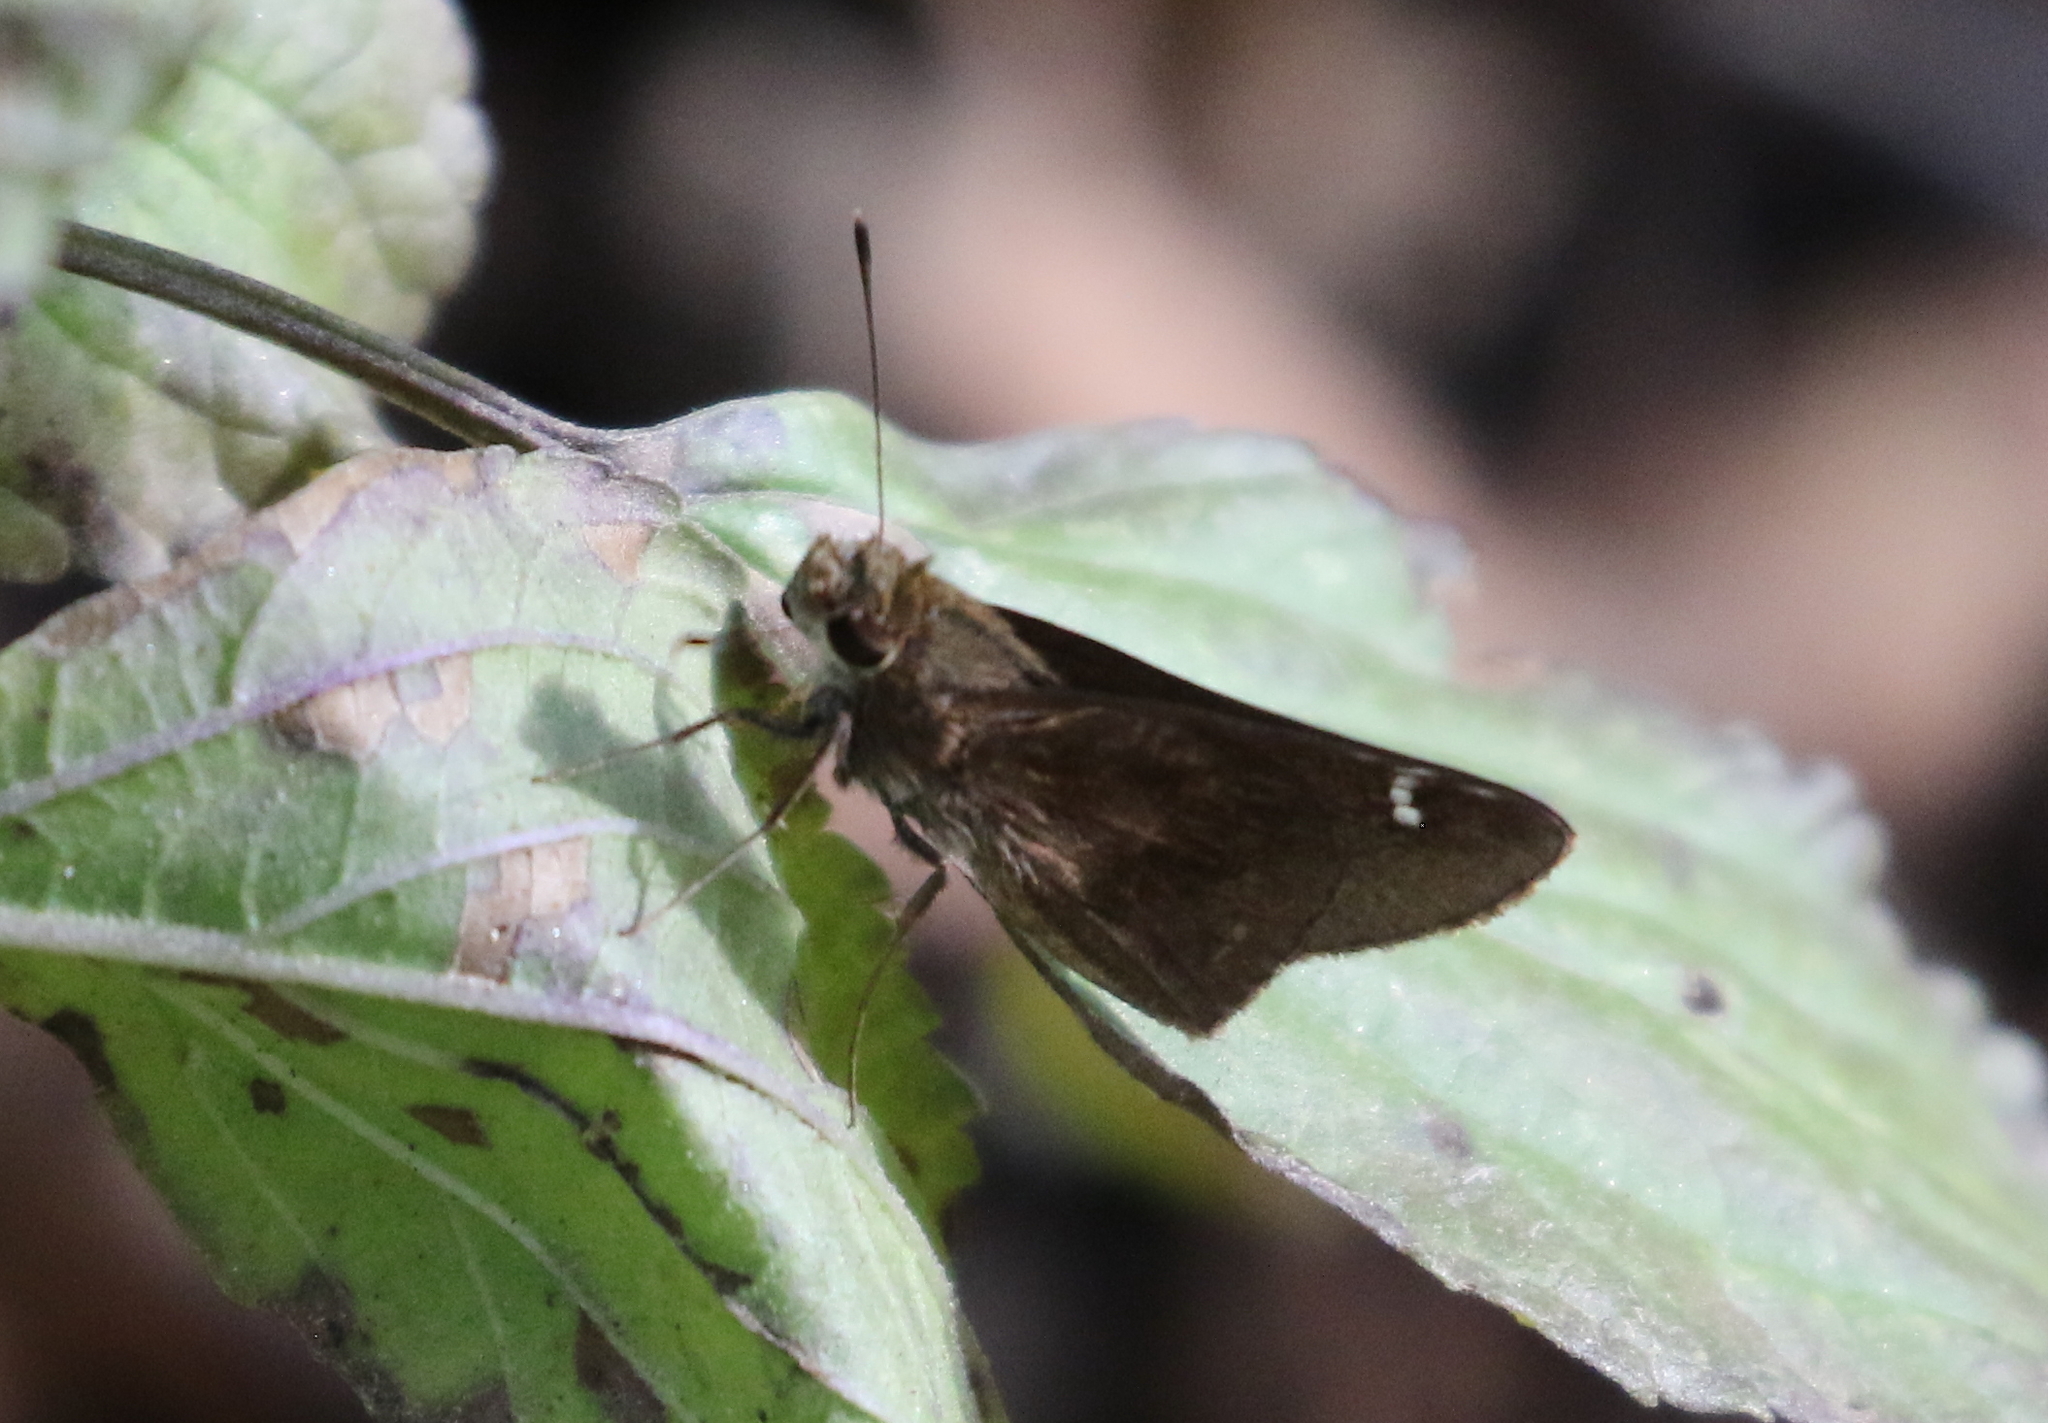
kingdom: Animalia
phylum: Arthropoda
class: Insecta
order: Lepidoptera
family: Hesperiidae
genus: Lerema
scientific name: Lerema accius
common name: Clouded skipper
